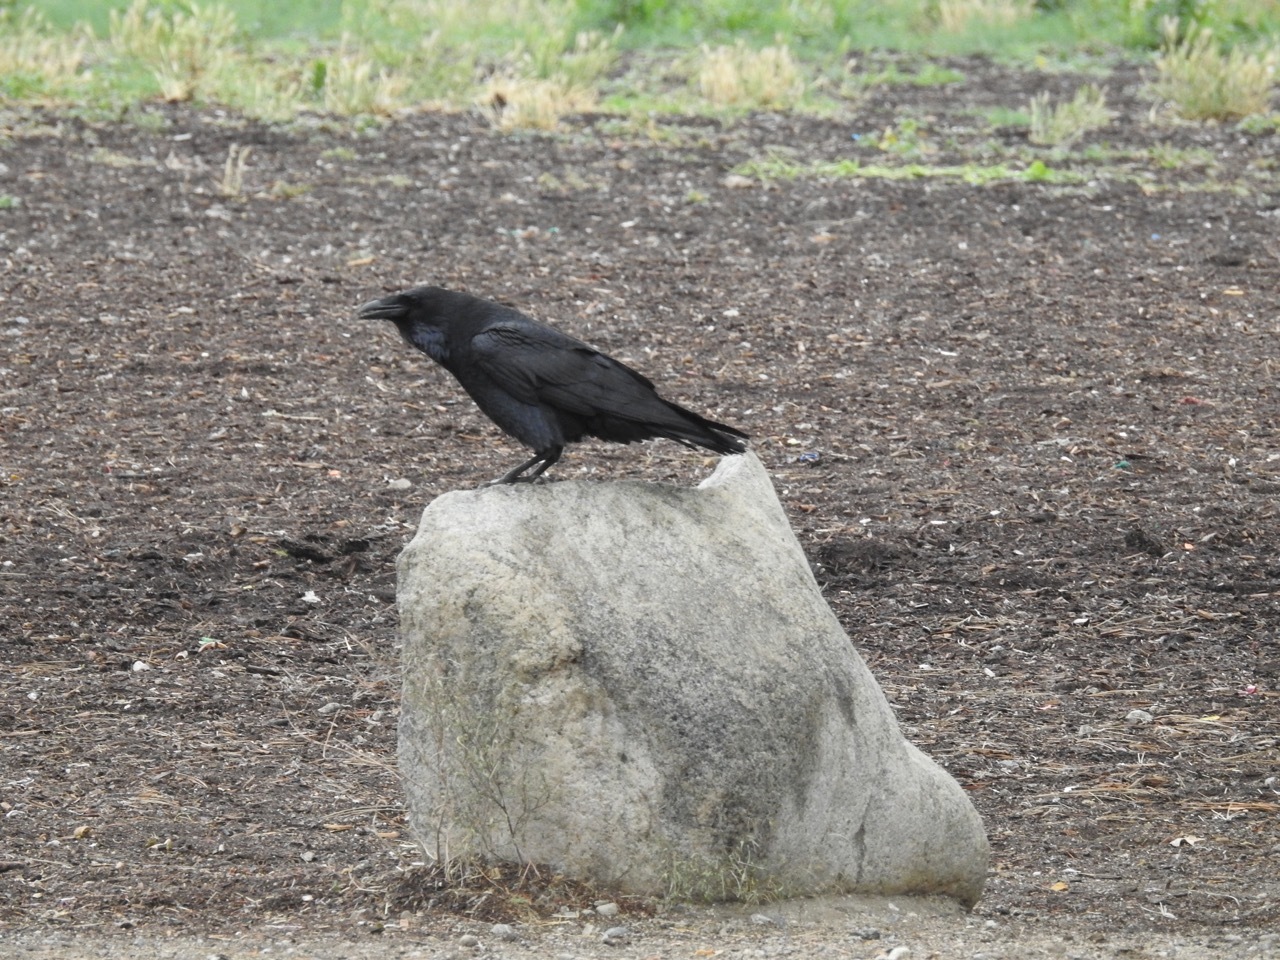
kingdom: Animalia
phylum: Chordata
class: Aves
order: Passeriformes
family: Corvidae
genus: Corvus
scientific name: Corvus corax
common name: Common raven
